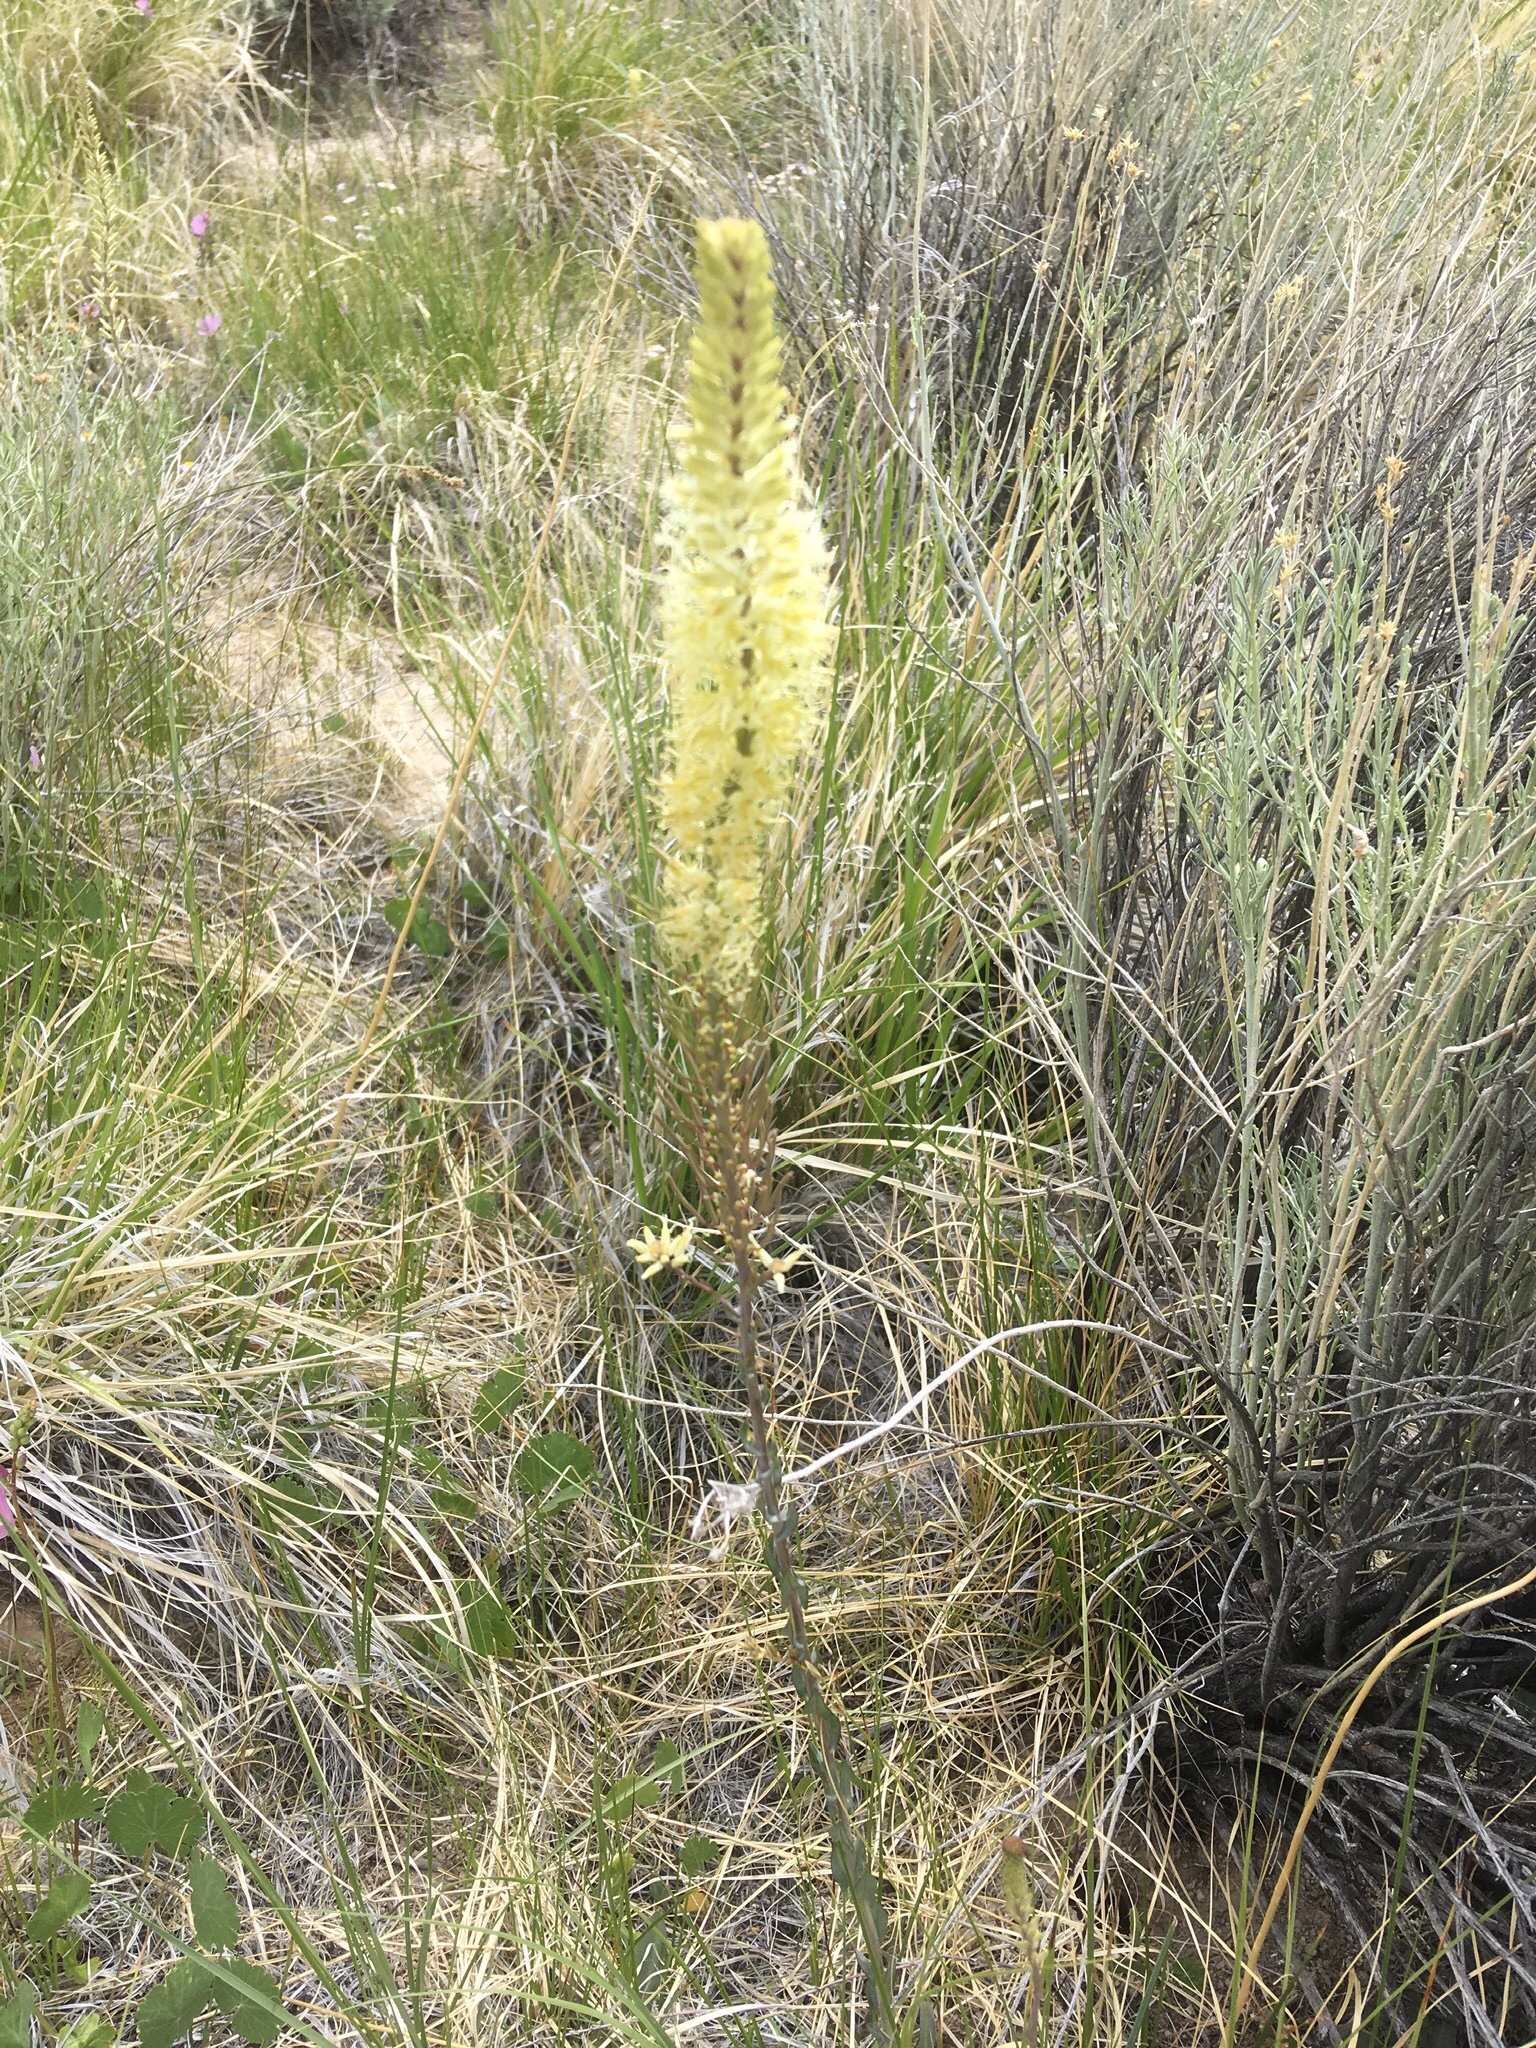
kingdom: Plantae
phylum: Tracheophyta
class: Magnoliopsida
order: Brassicales
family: Brassicaceae
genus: Thelypodium
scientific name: Thelypodium crispum
